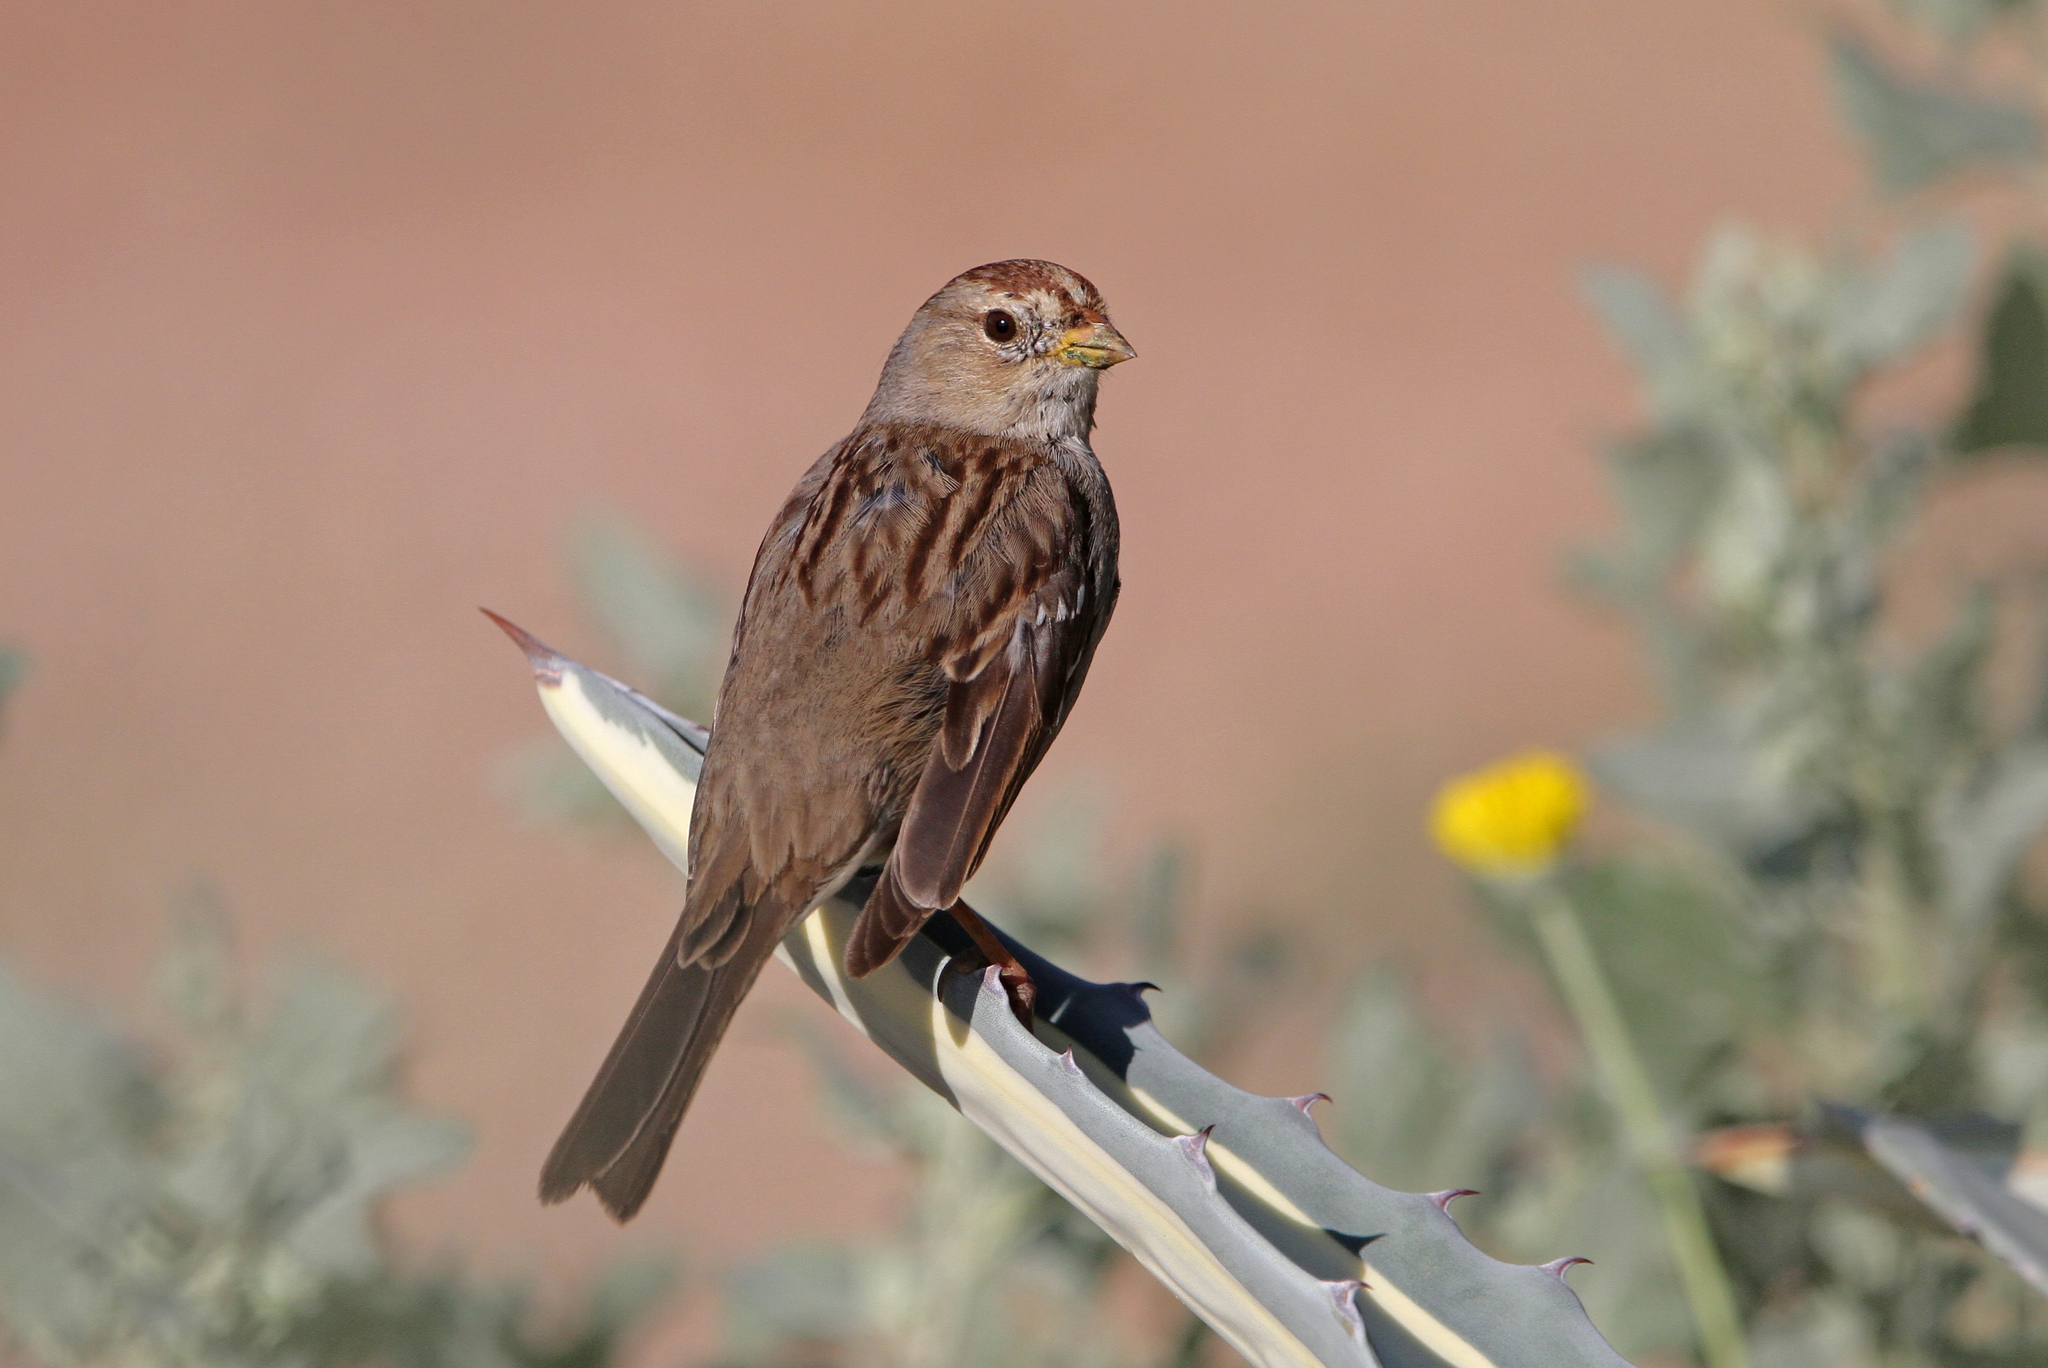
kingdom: Animalia
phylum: Chordata
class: Aves
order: Passeriformes
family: Passerellidae
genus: Zonotrichia
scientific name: Zonotrichia leucophrys
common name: White-crowned sparrow
